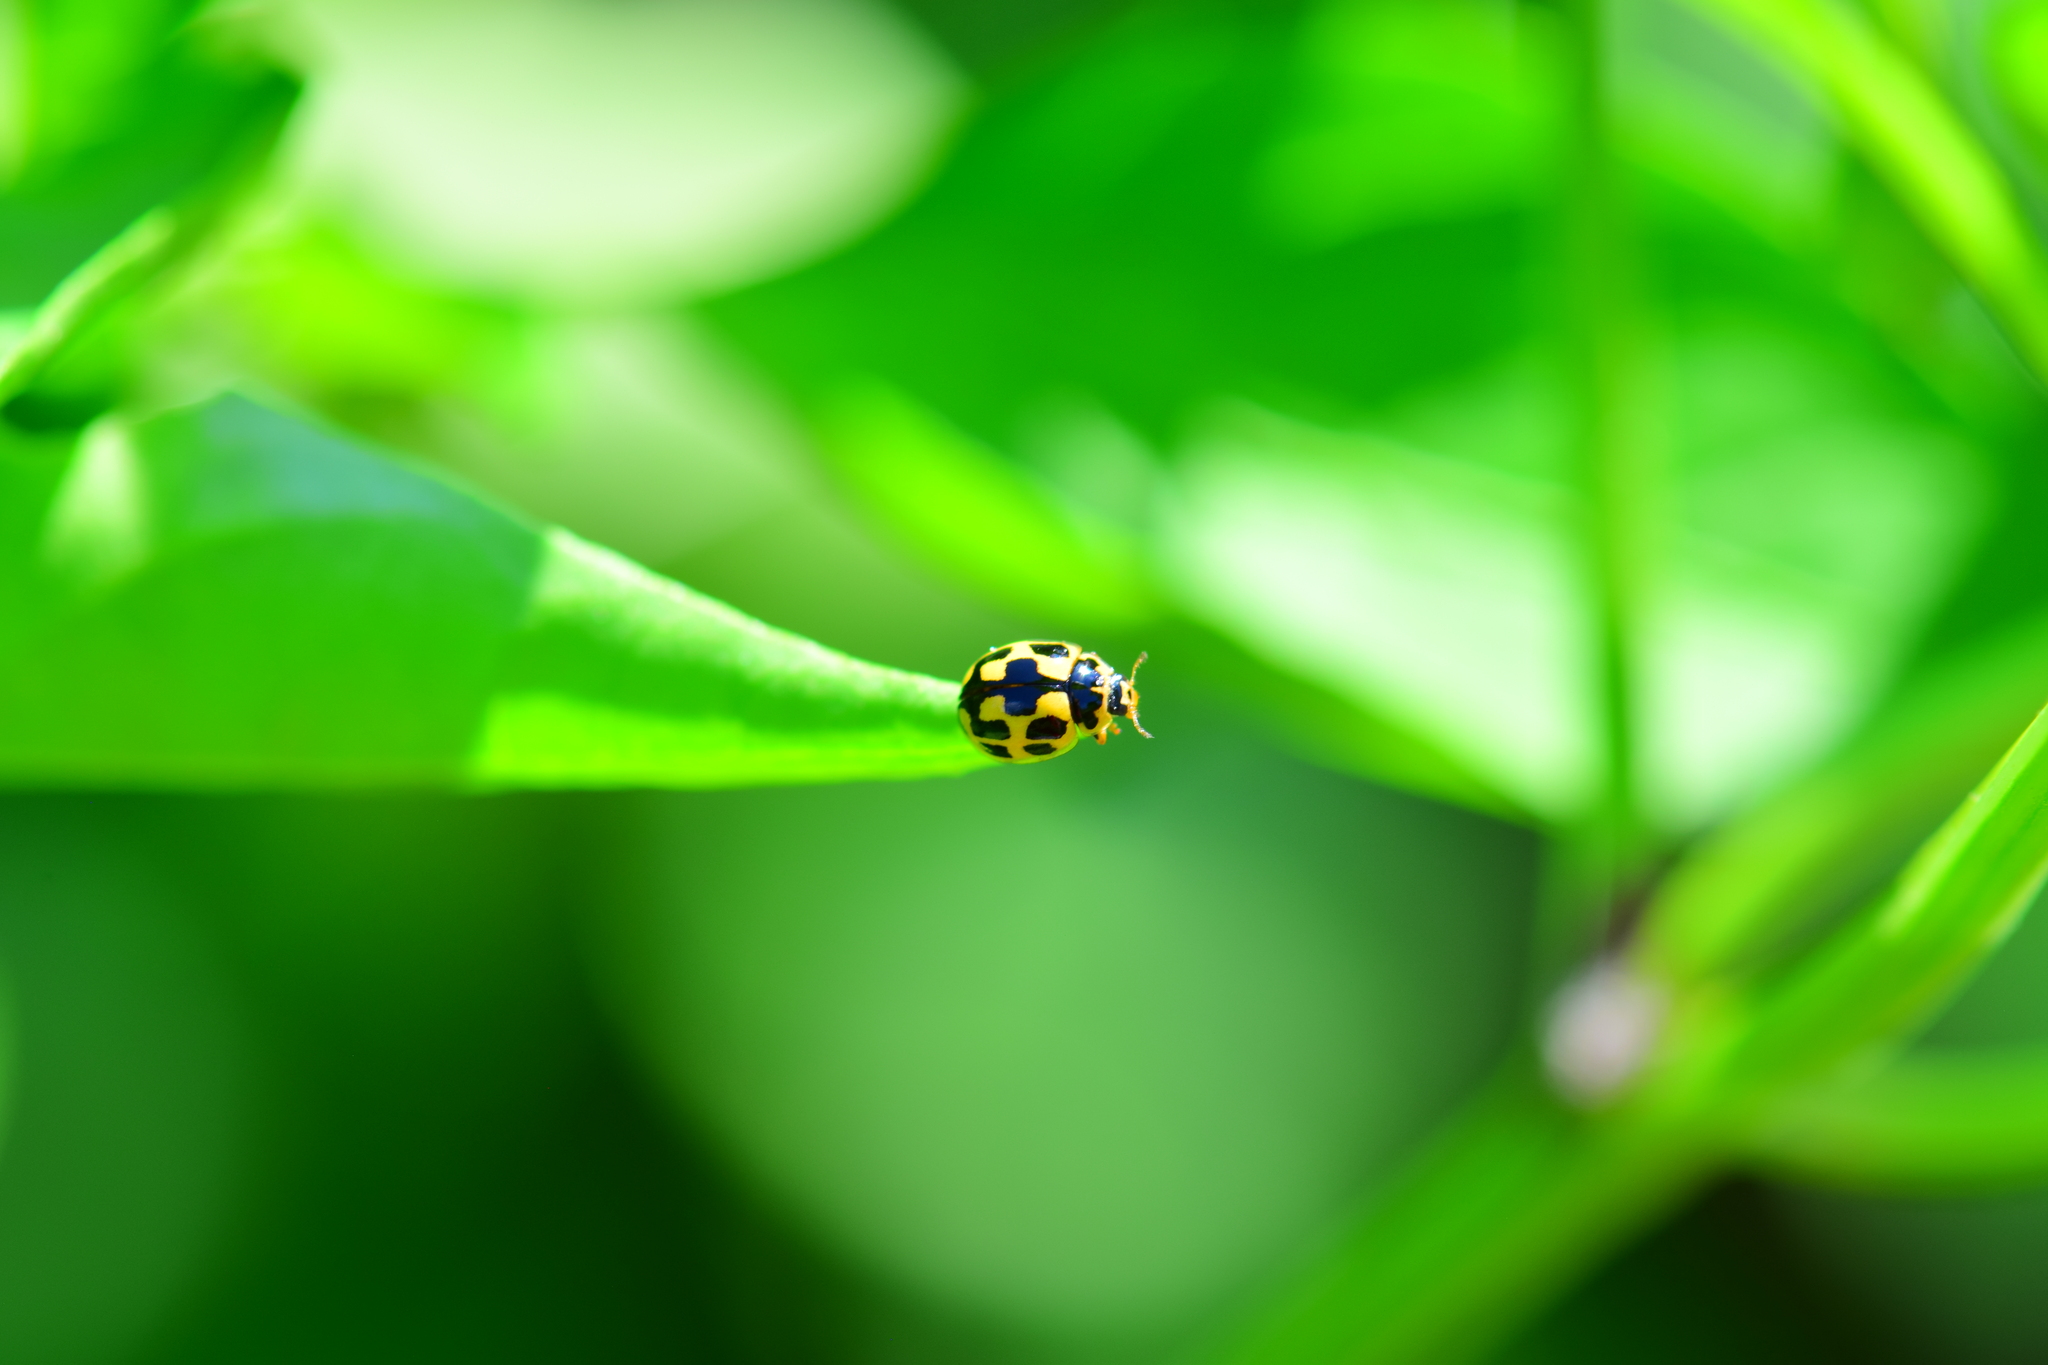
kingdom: Animalia
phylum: Arthropoda
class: Insecta
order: Coleoptera
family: Coccinellidae
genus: Propylaea
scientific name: Propylaea quatuordecimpunctata
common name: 14-spotted ladybird beetle
